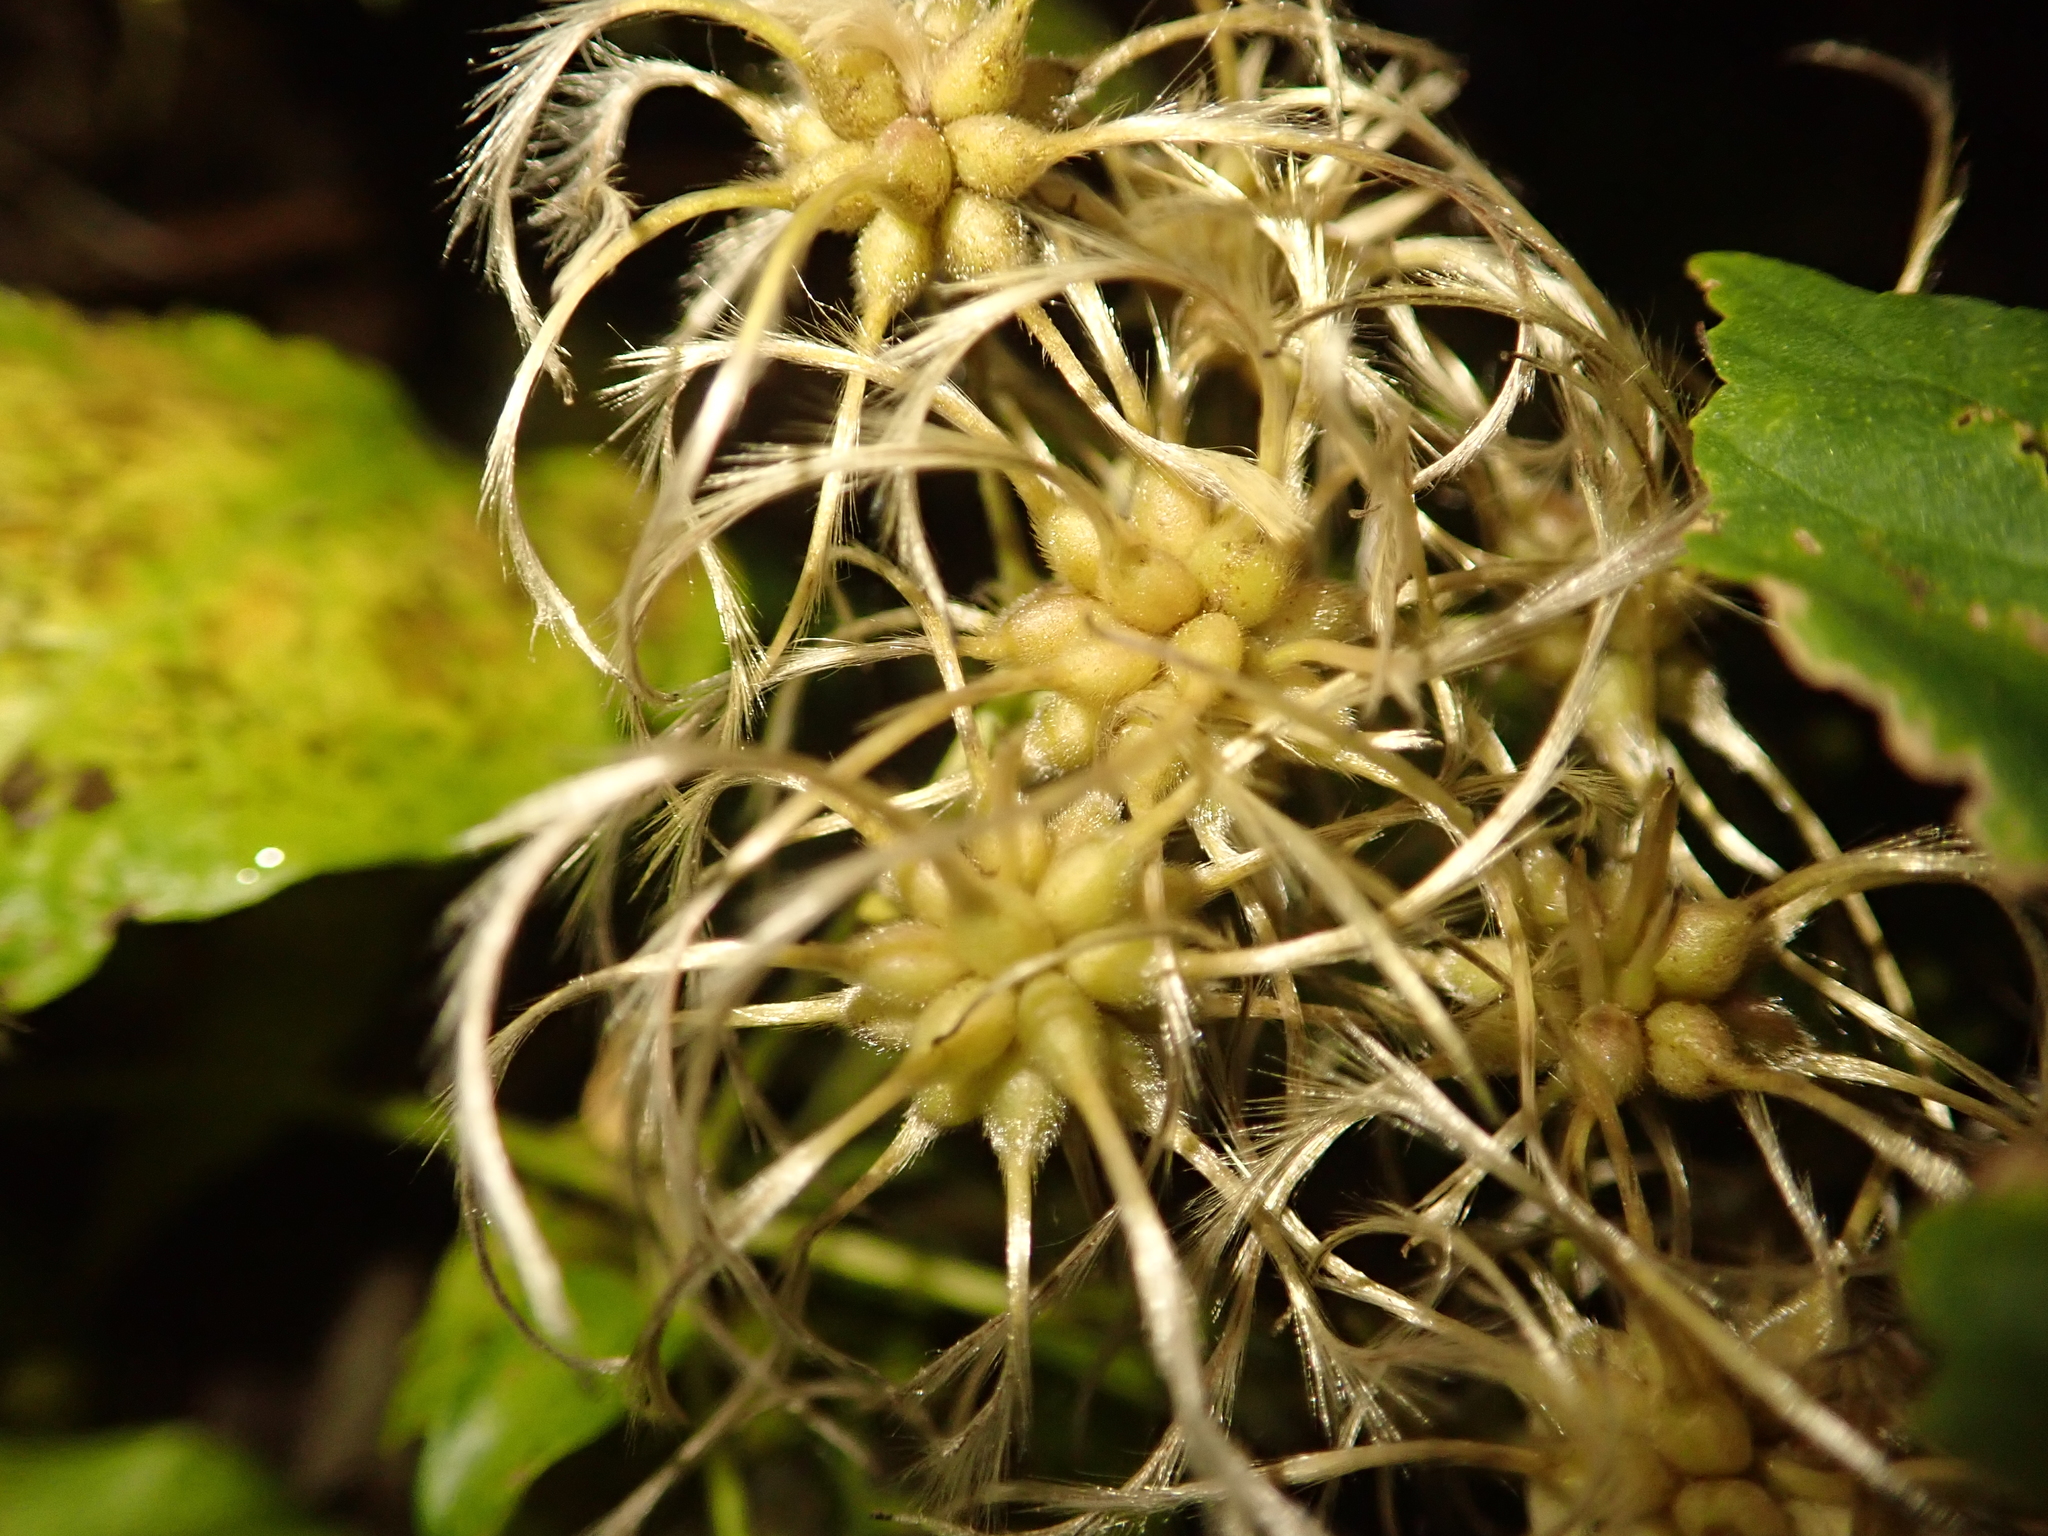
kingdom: Plantae
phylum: Tracheophyta
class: Magnoliopsida
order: Ranunculales
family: Ranunculaceae
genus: Clematis
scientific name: Clematis vitalba
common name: Evergreen clematis
